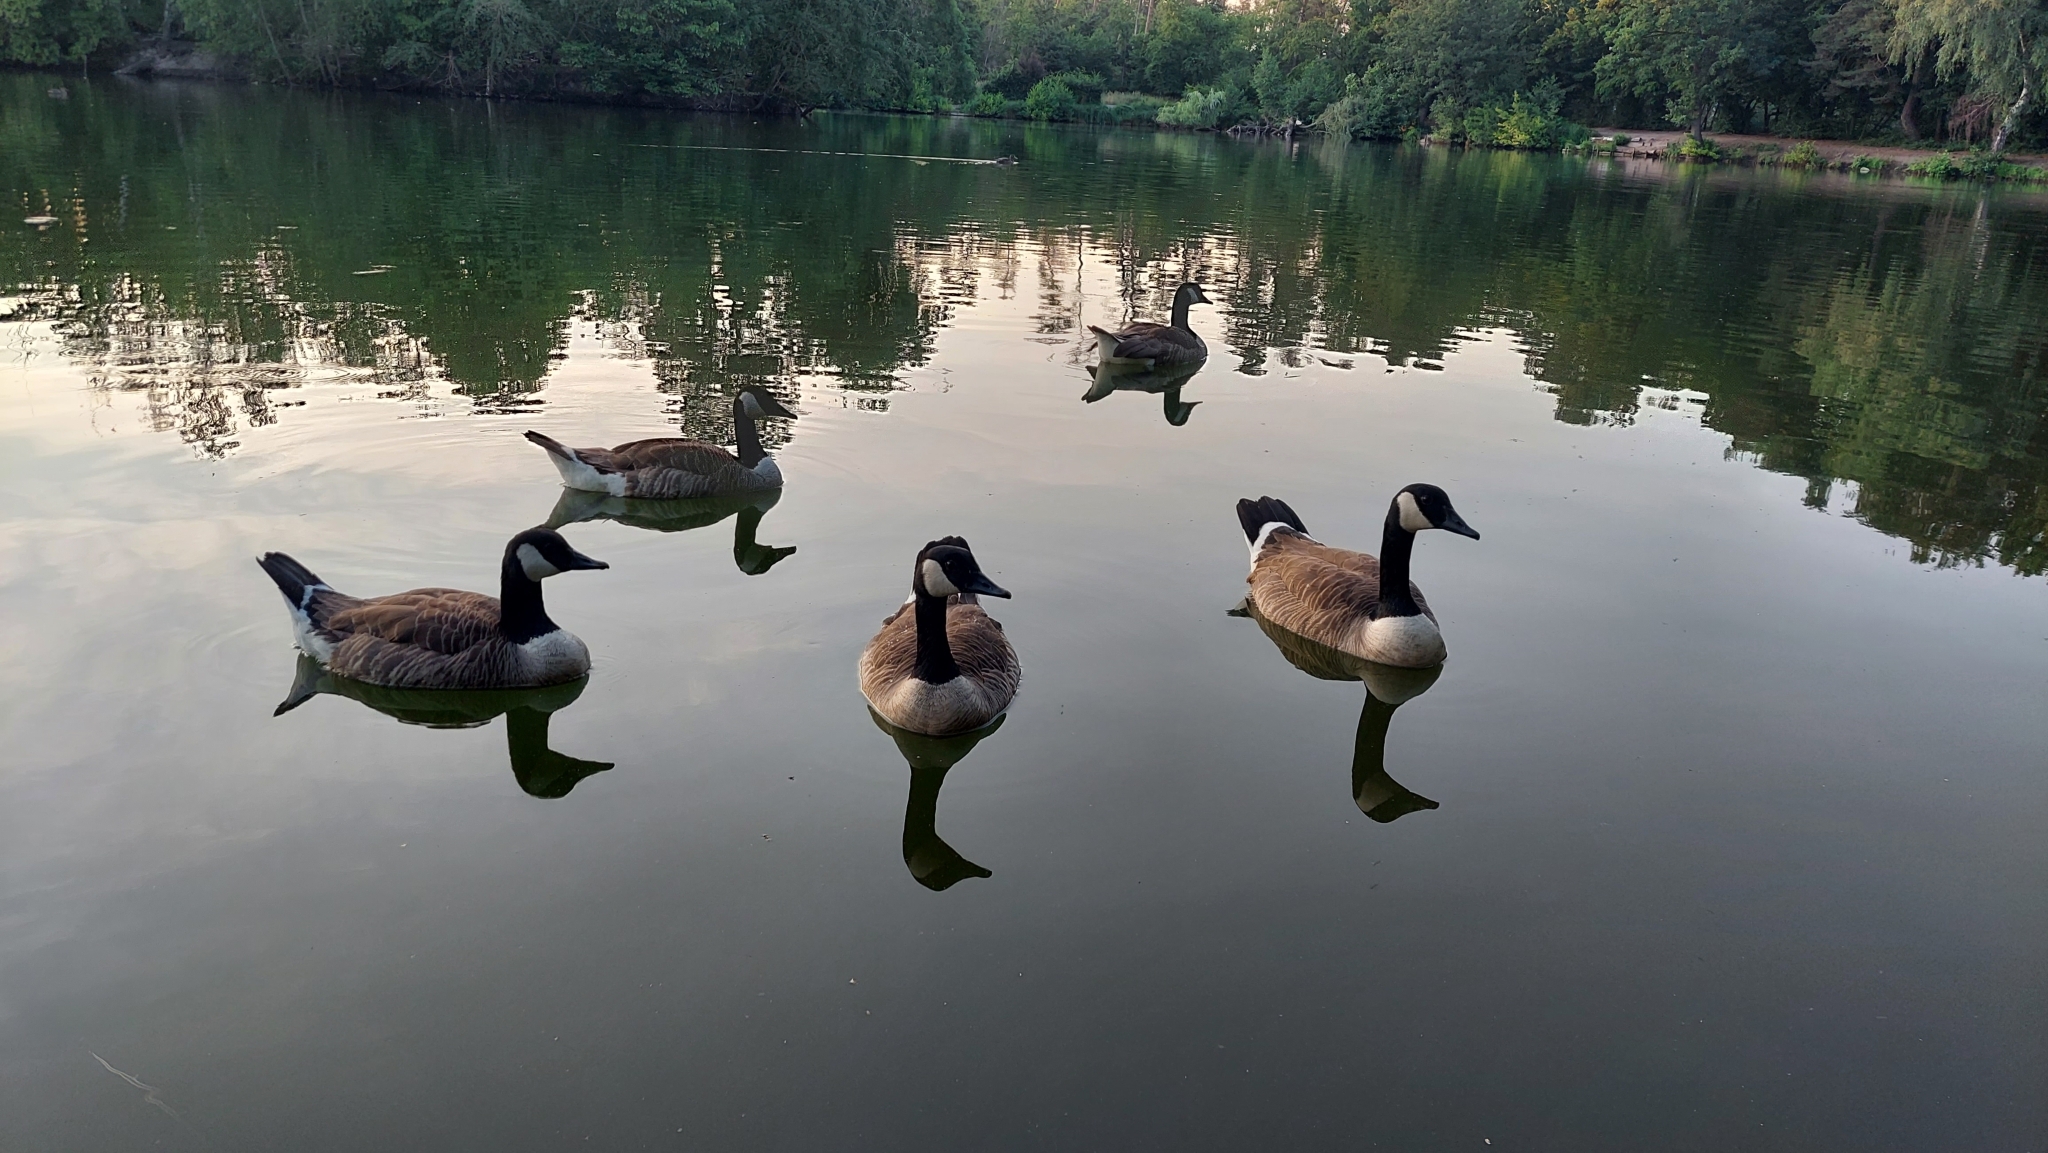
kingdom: Animalia
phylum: Chordata
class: Aves
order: Anseriformes
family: Anatidae
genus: Branta
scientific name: Branta canadensis
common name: Canada goose
